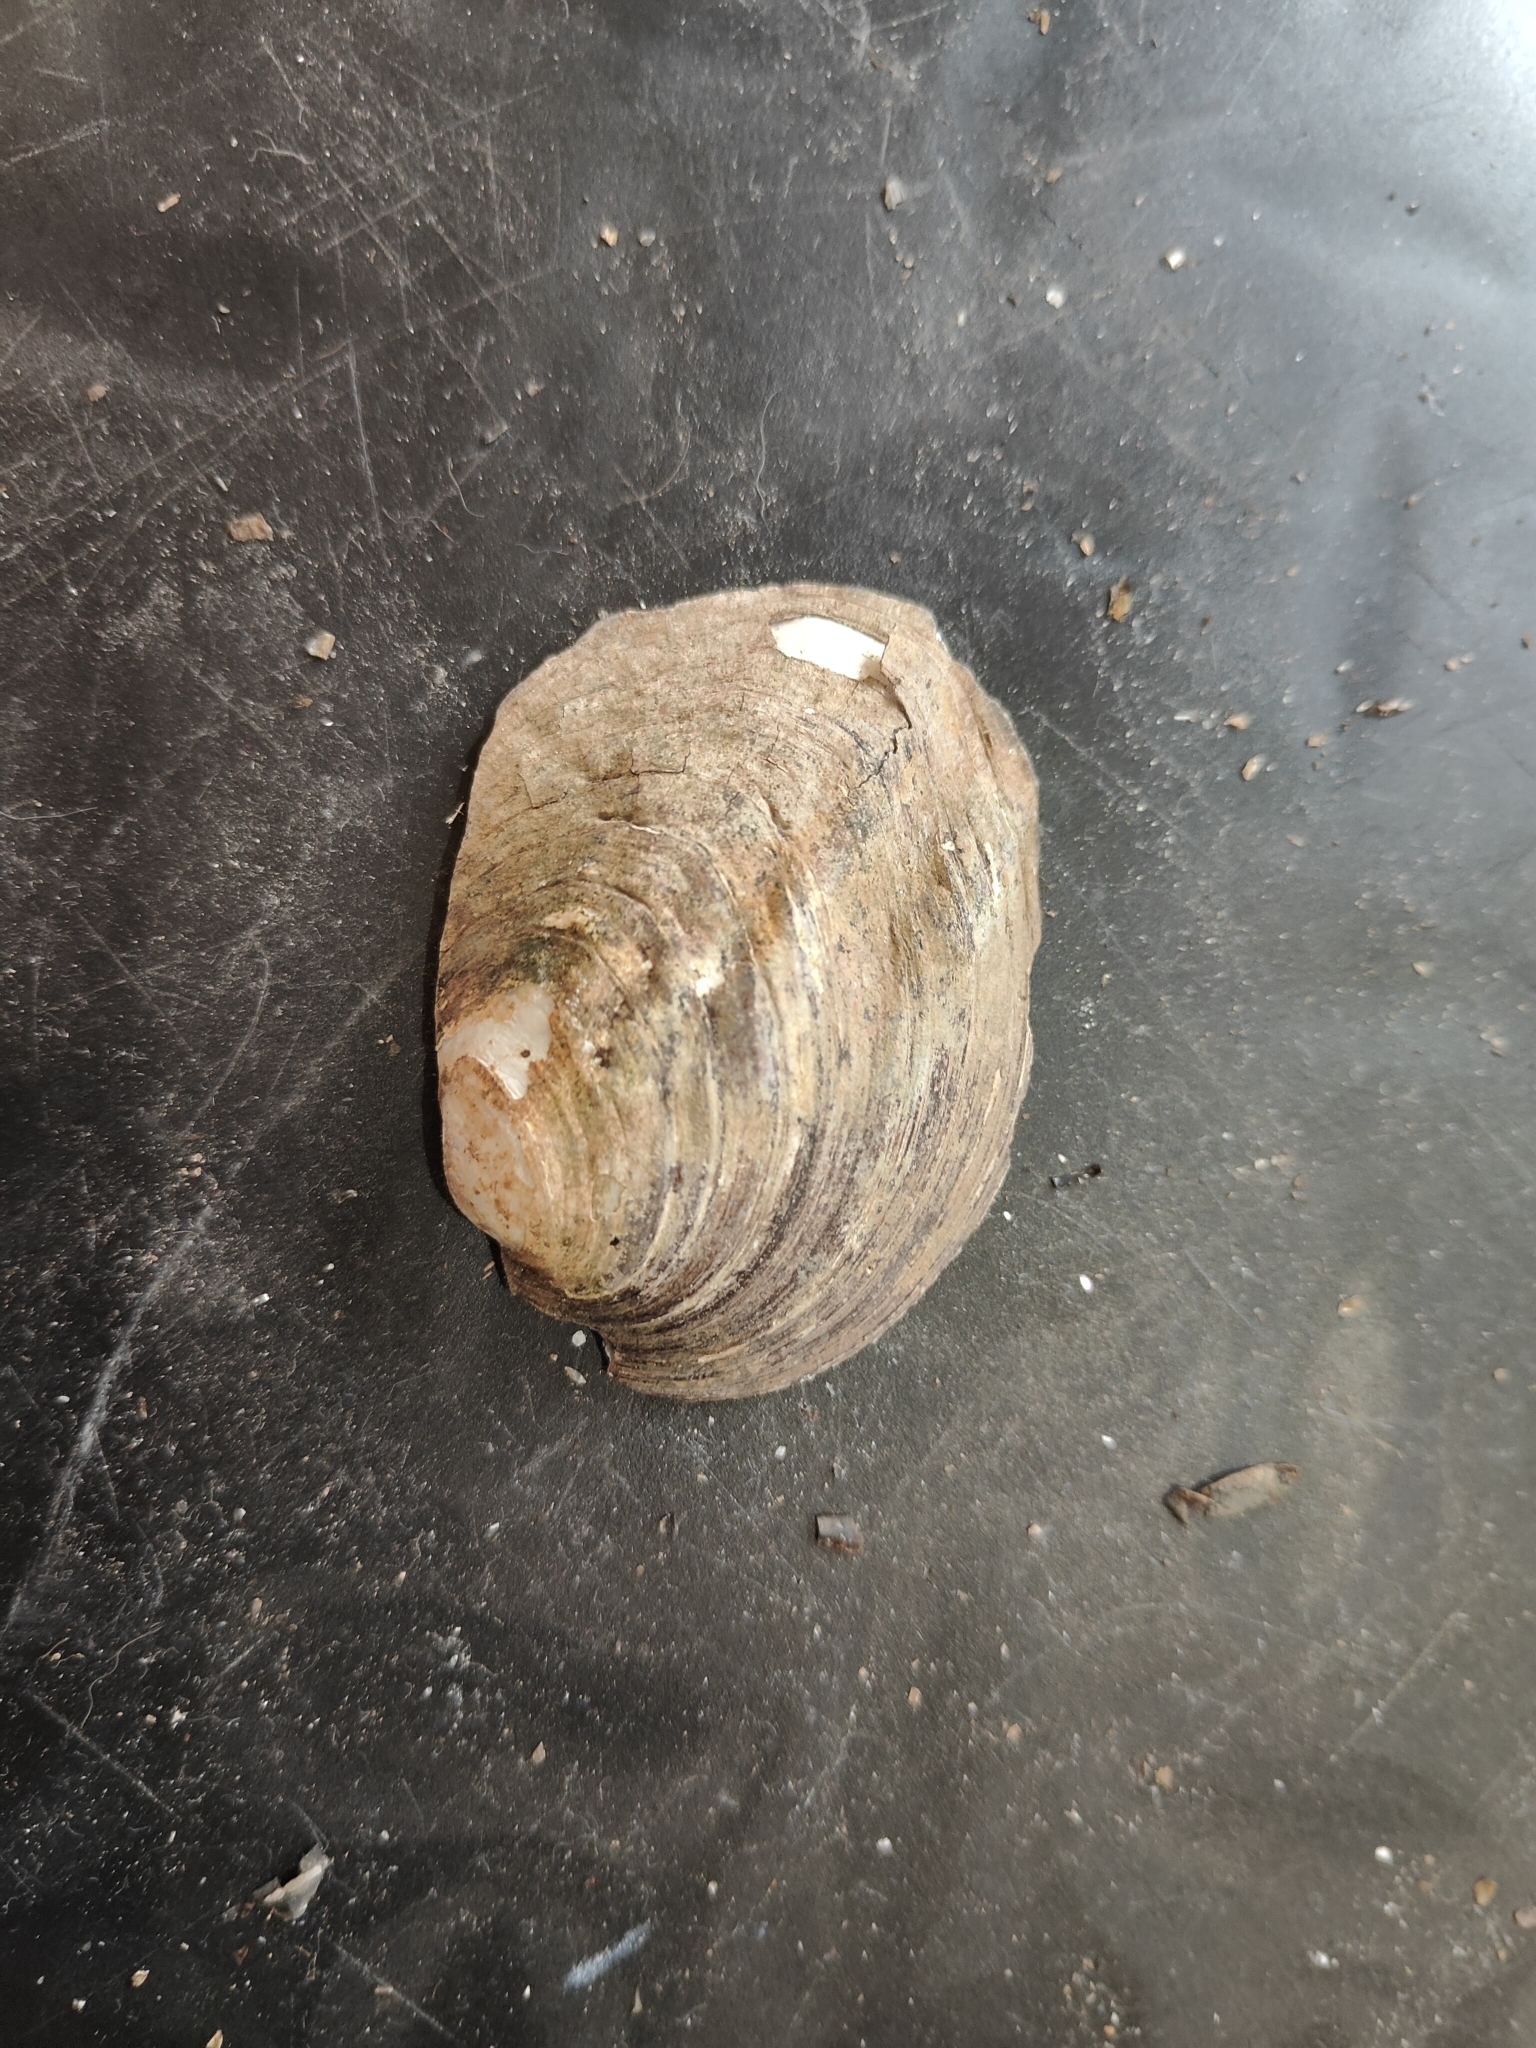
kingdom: Animalia
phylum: Mollusca
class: Bivalvia
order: Unionida
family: Unionidae
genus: Amblema
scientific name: Amblema plicata
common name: Threeridge
